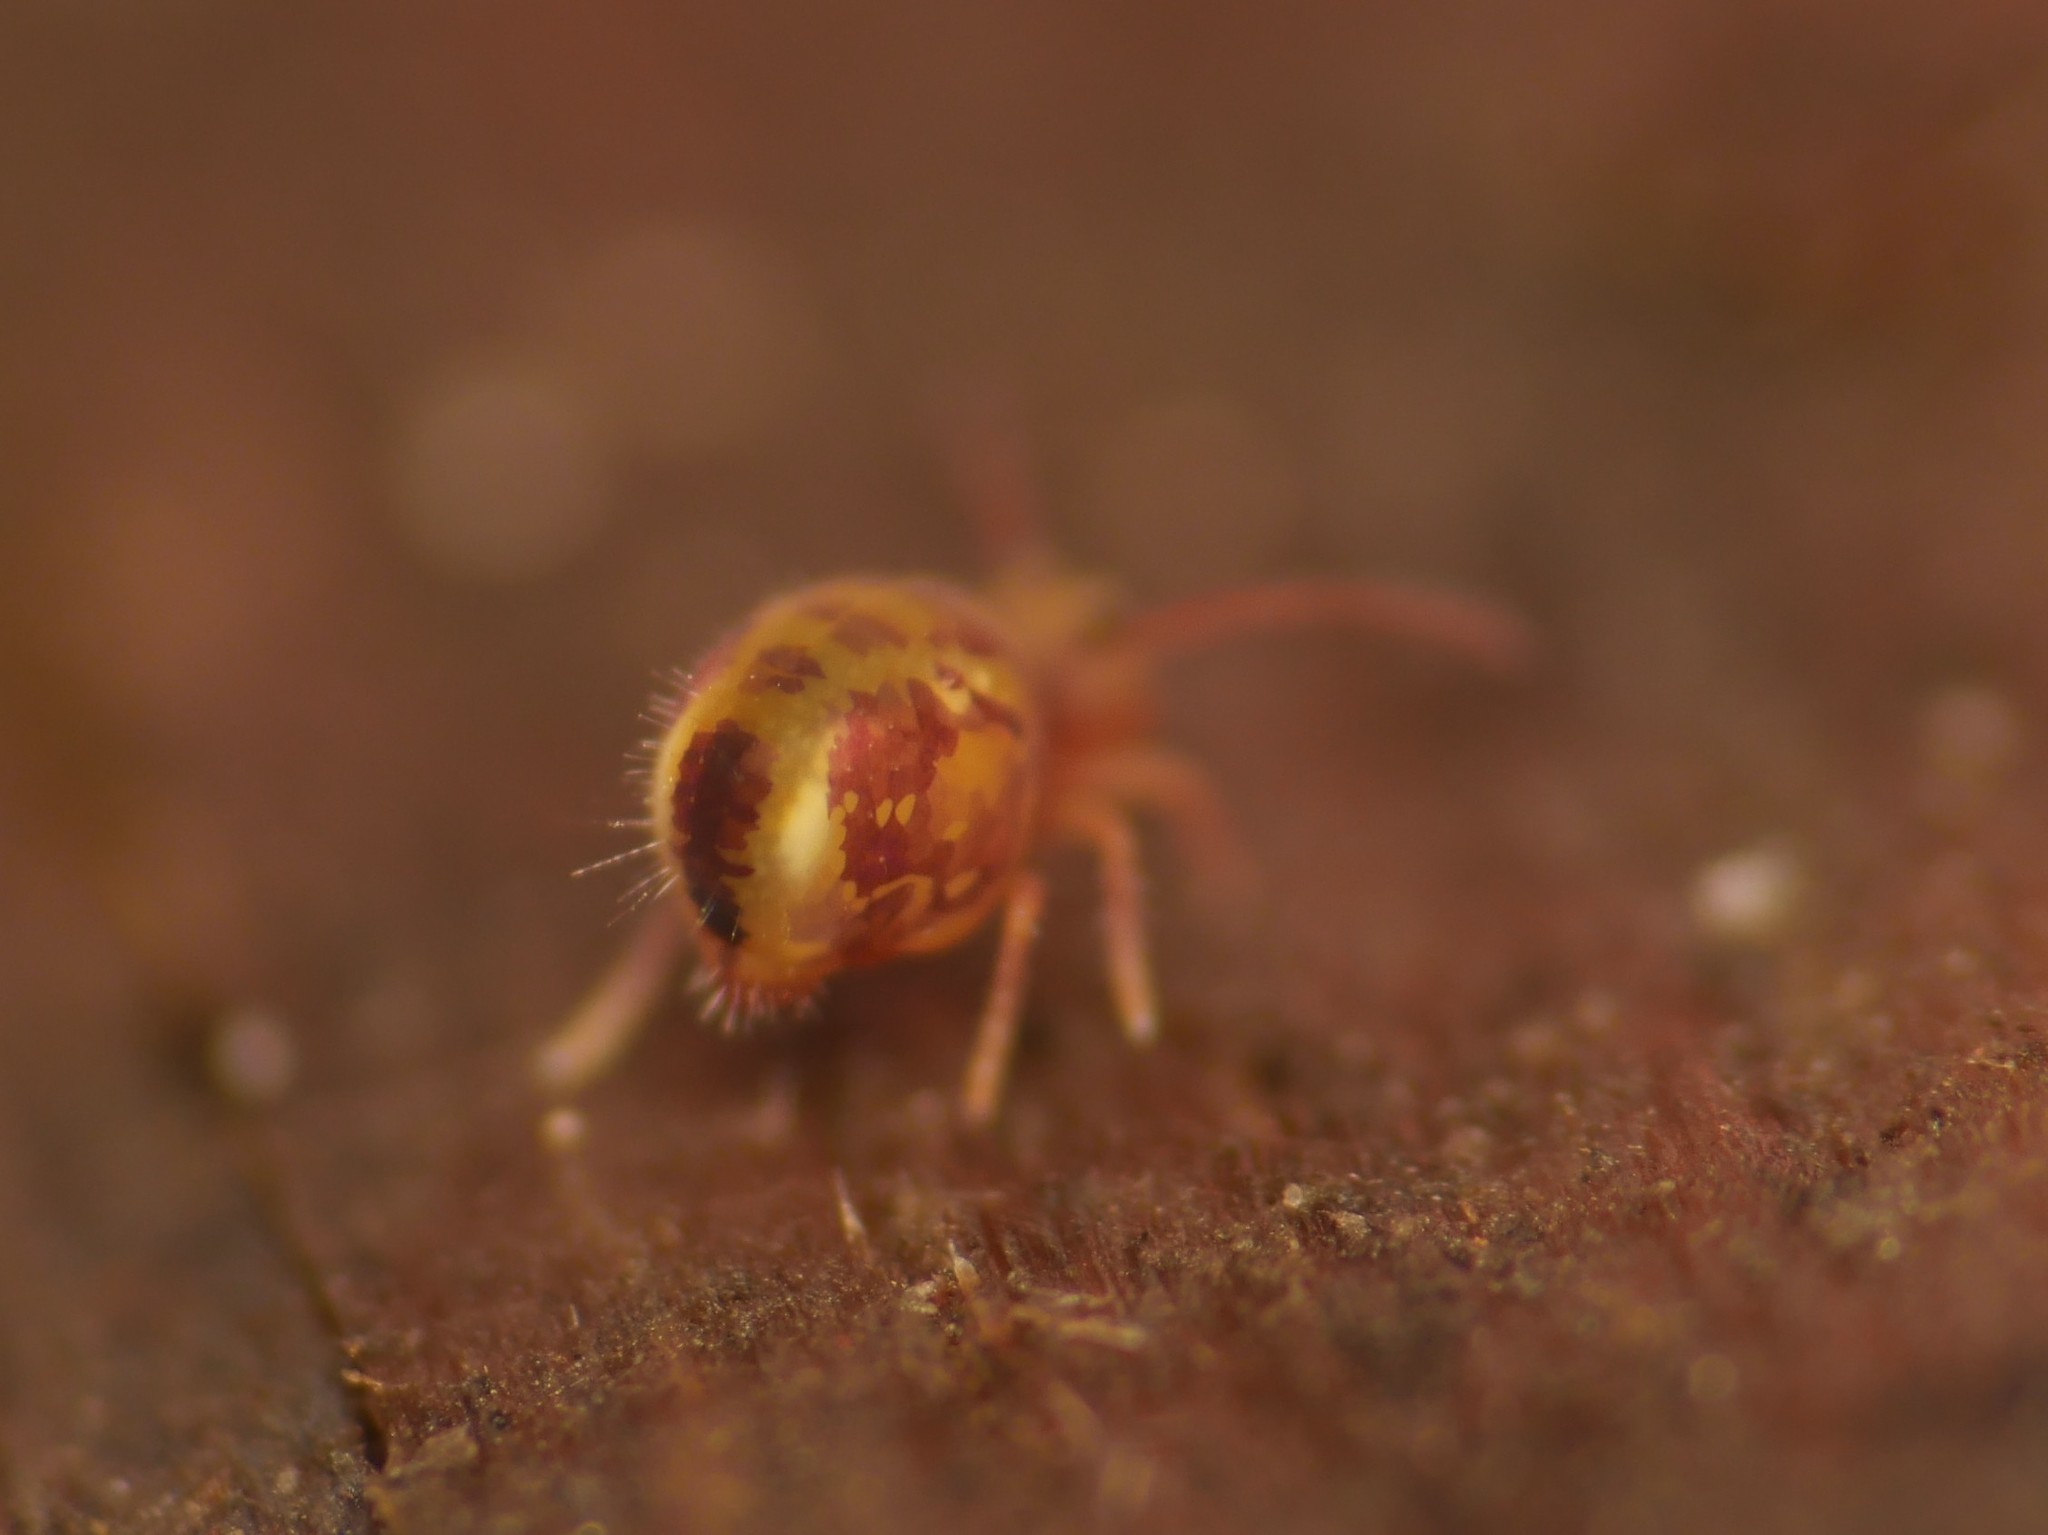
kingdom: Animalia
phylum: Arthropoda
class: Collembola
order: Symphypleona
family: Dicyrtomidae
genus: Dicyrtomina
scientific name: Dicyrtomina ornata
